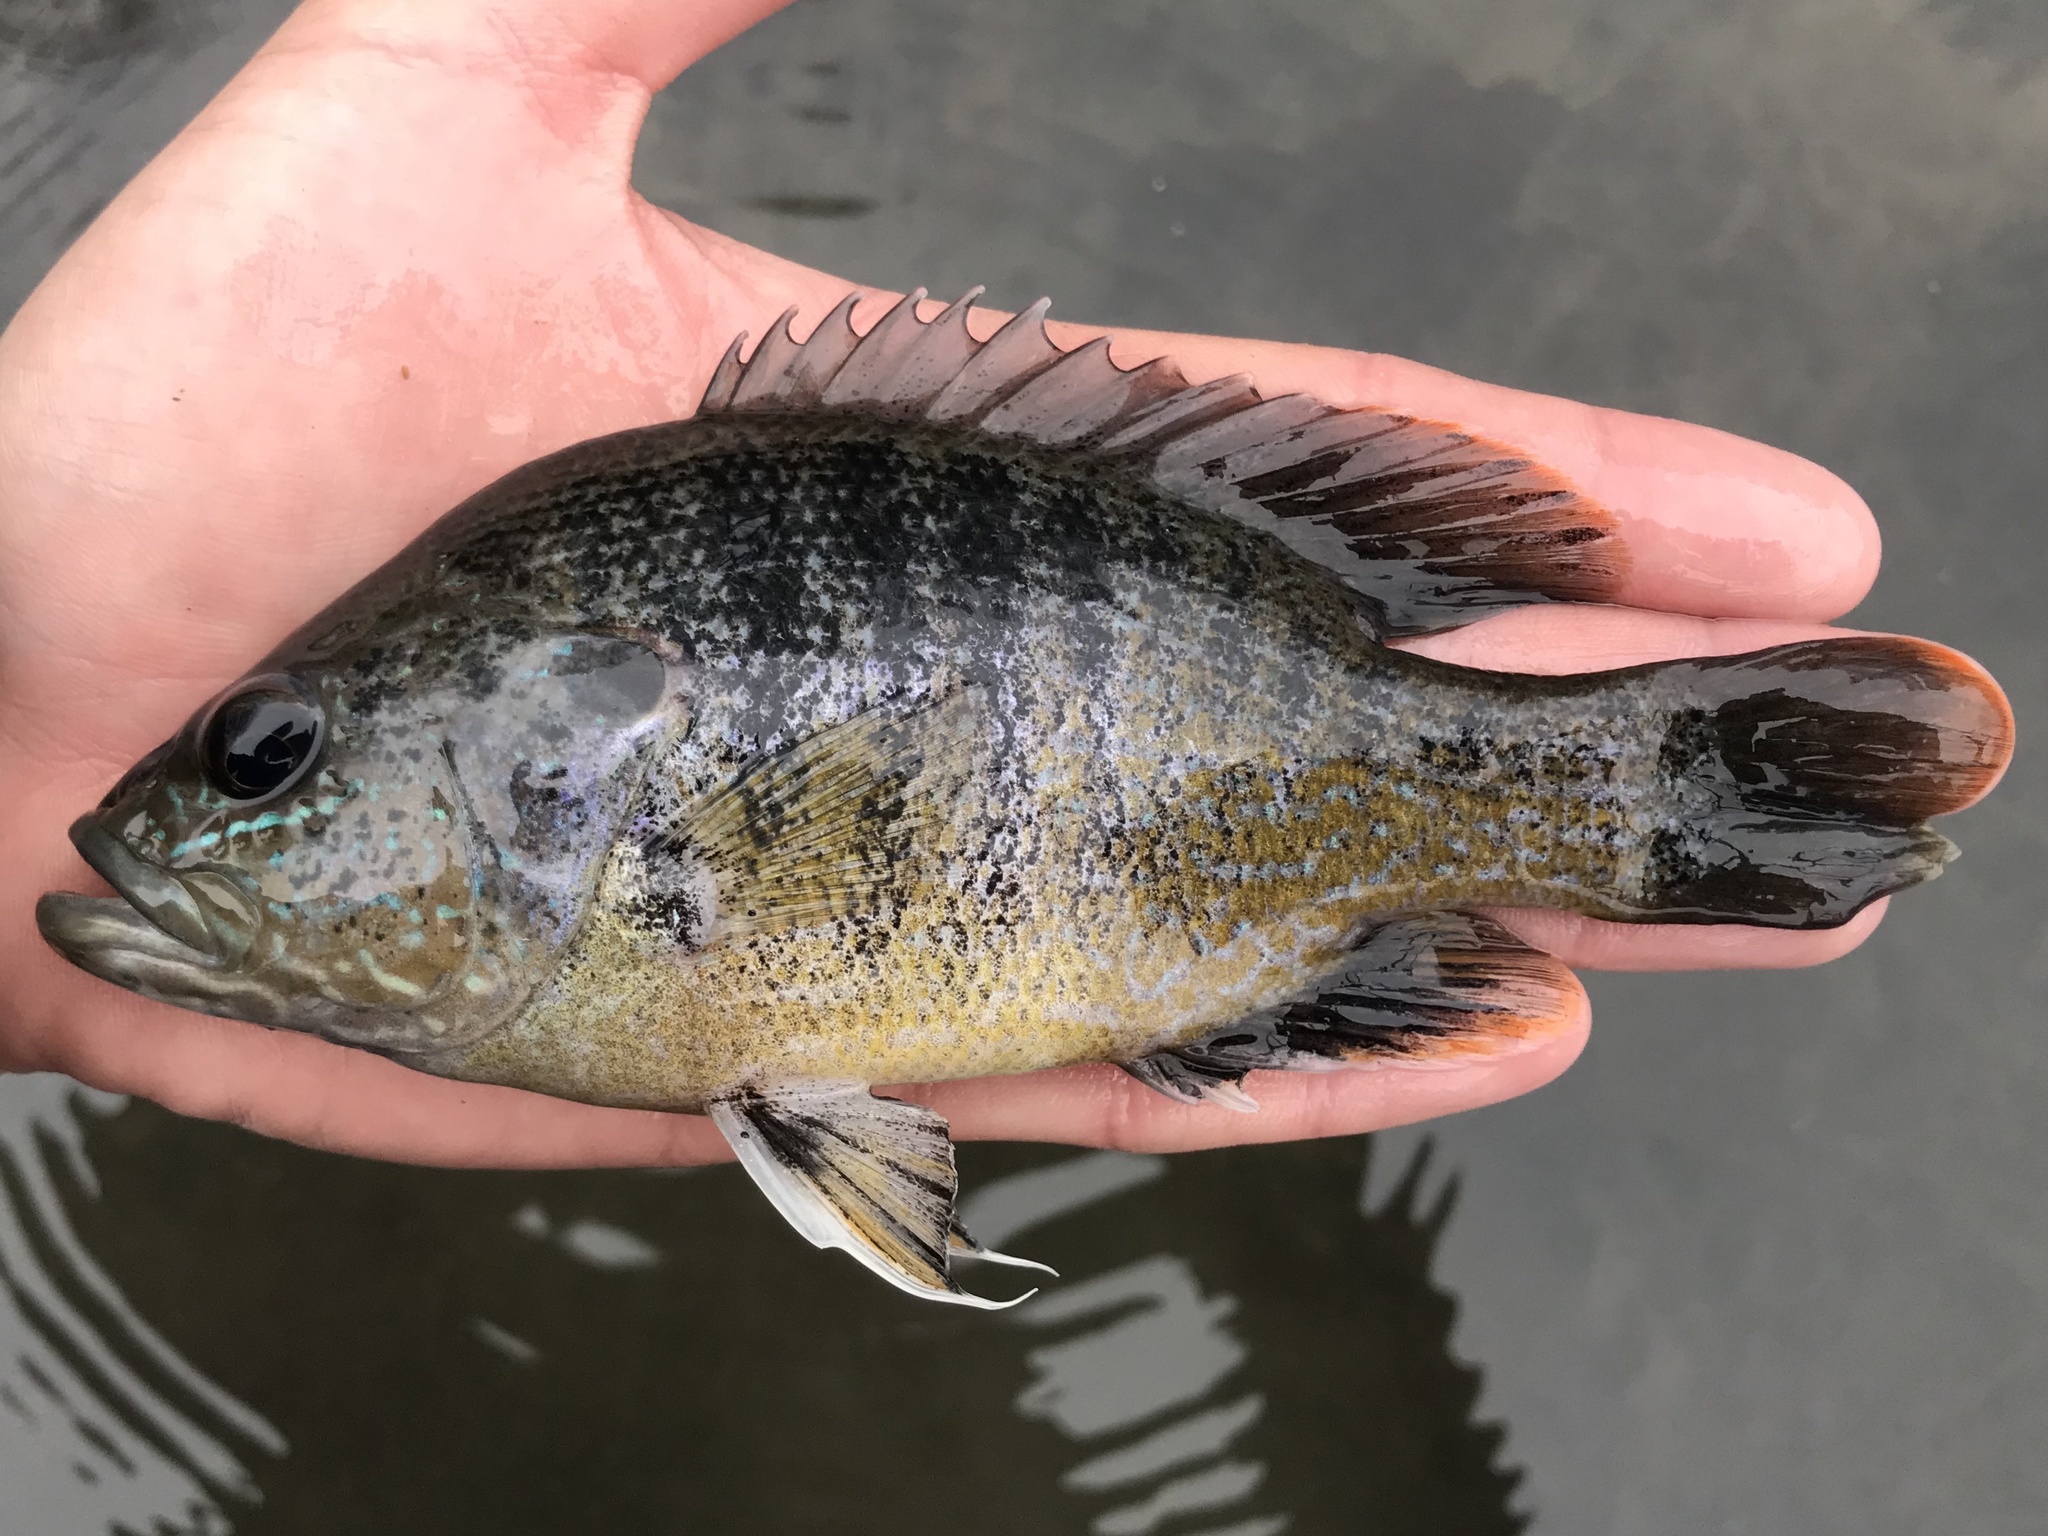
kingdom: Animalia
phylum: Chordata
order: Perciformes
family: Centrarchidae
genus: Lepomis
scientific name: Lepomis cyanellus
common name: Green sunfish
